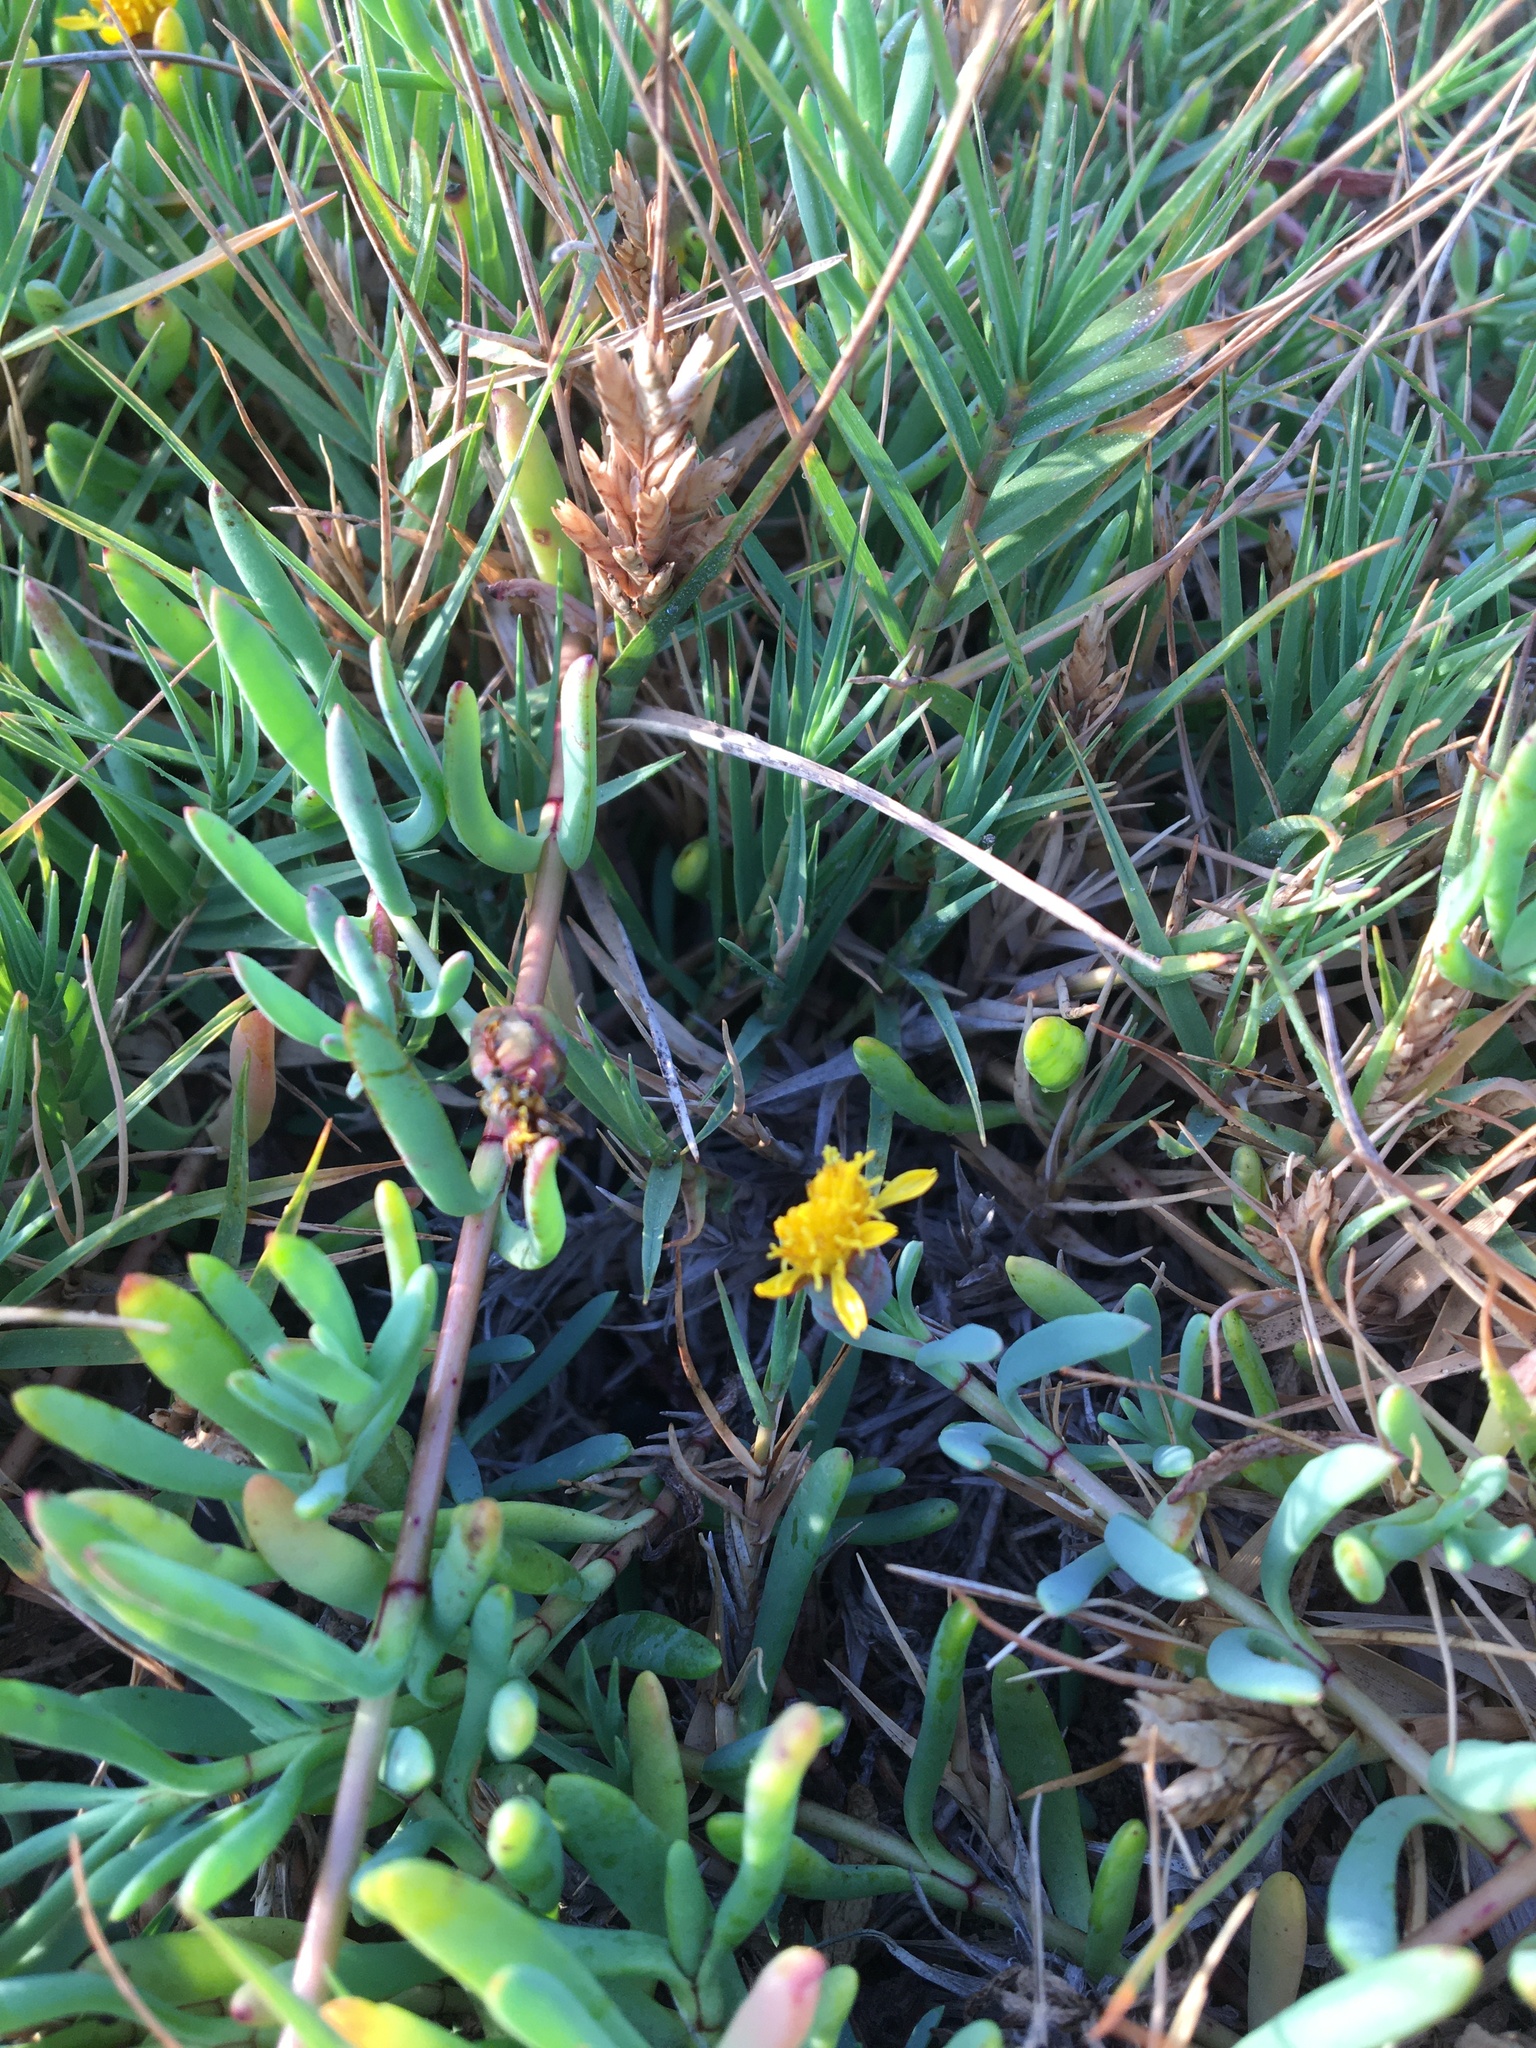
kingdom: Plantae
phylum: Tracheophyta
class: Magnoliopsida
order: Asterales
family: Asteraceae
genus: Jaumea
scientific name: Jaumea carnosa
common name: Fleshy jaumea
